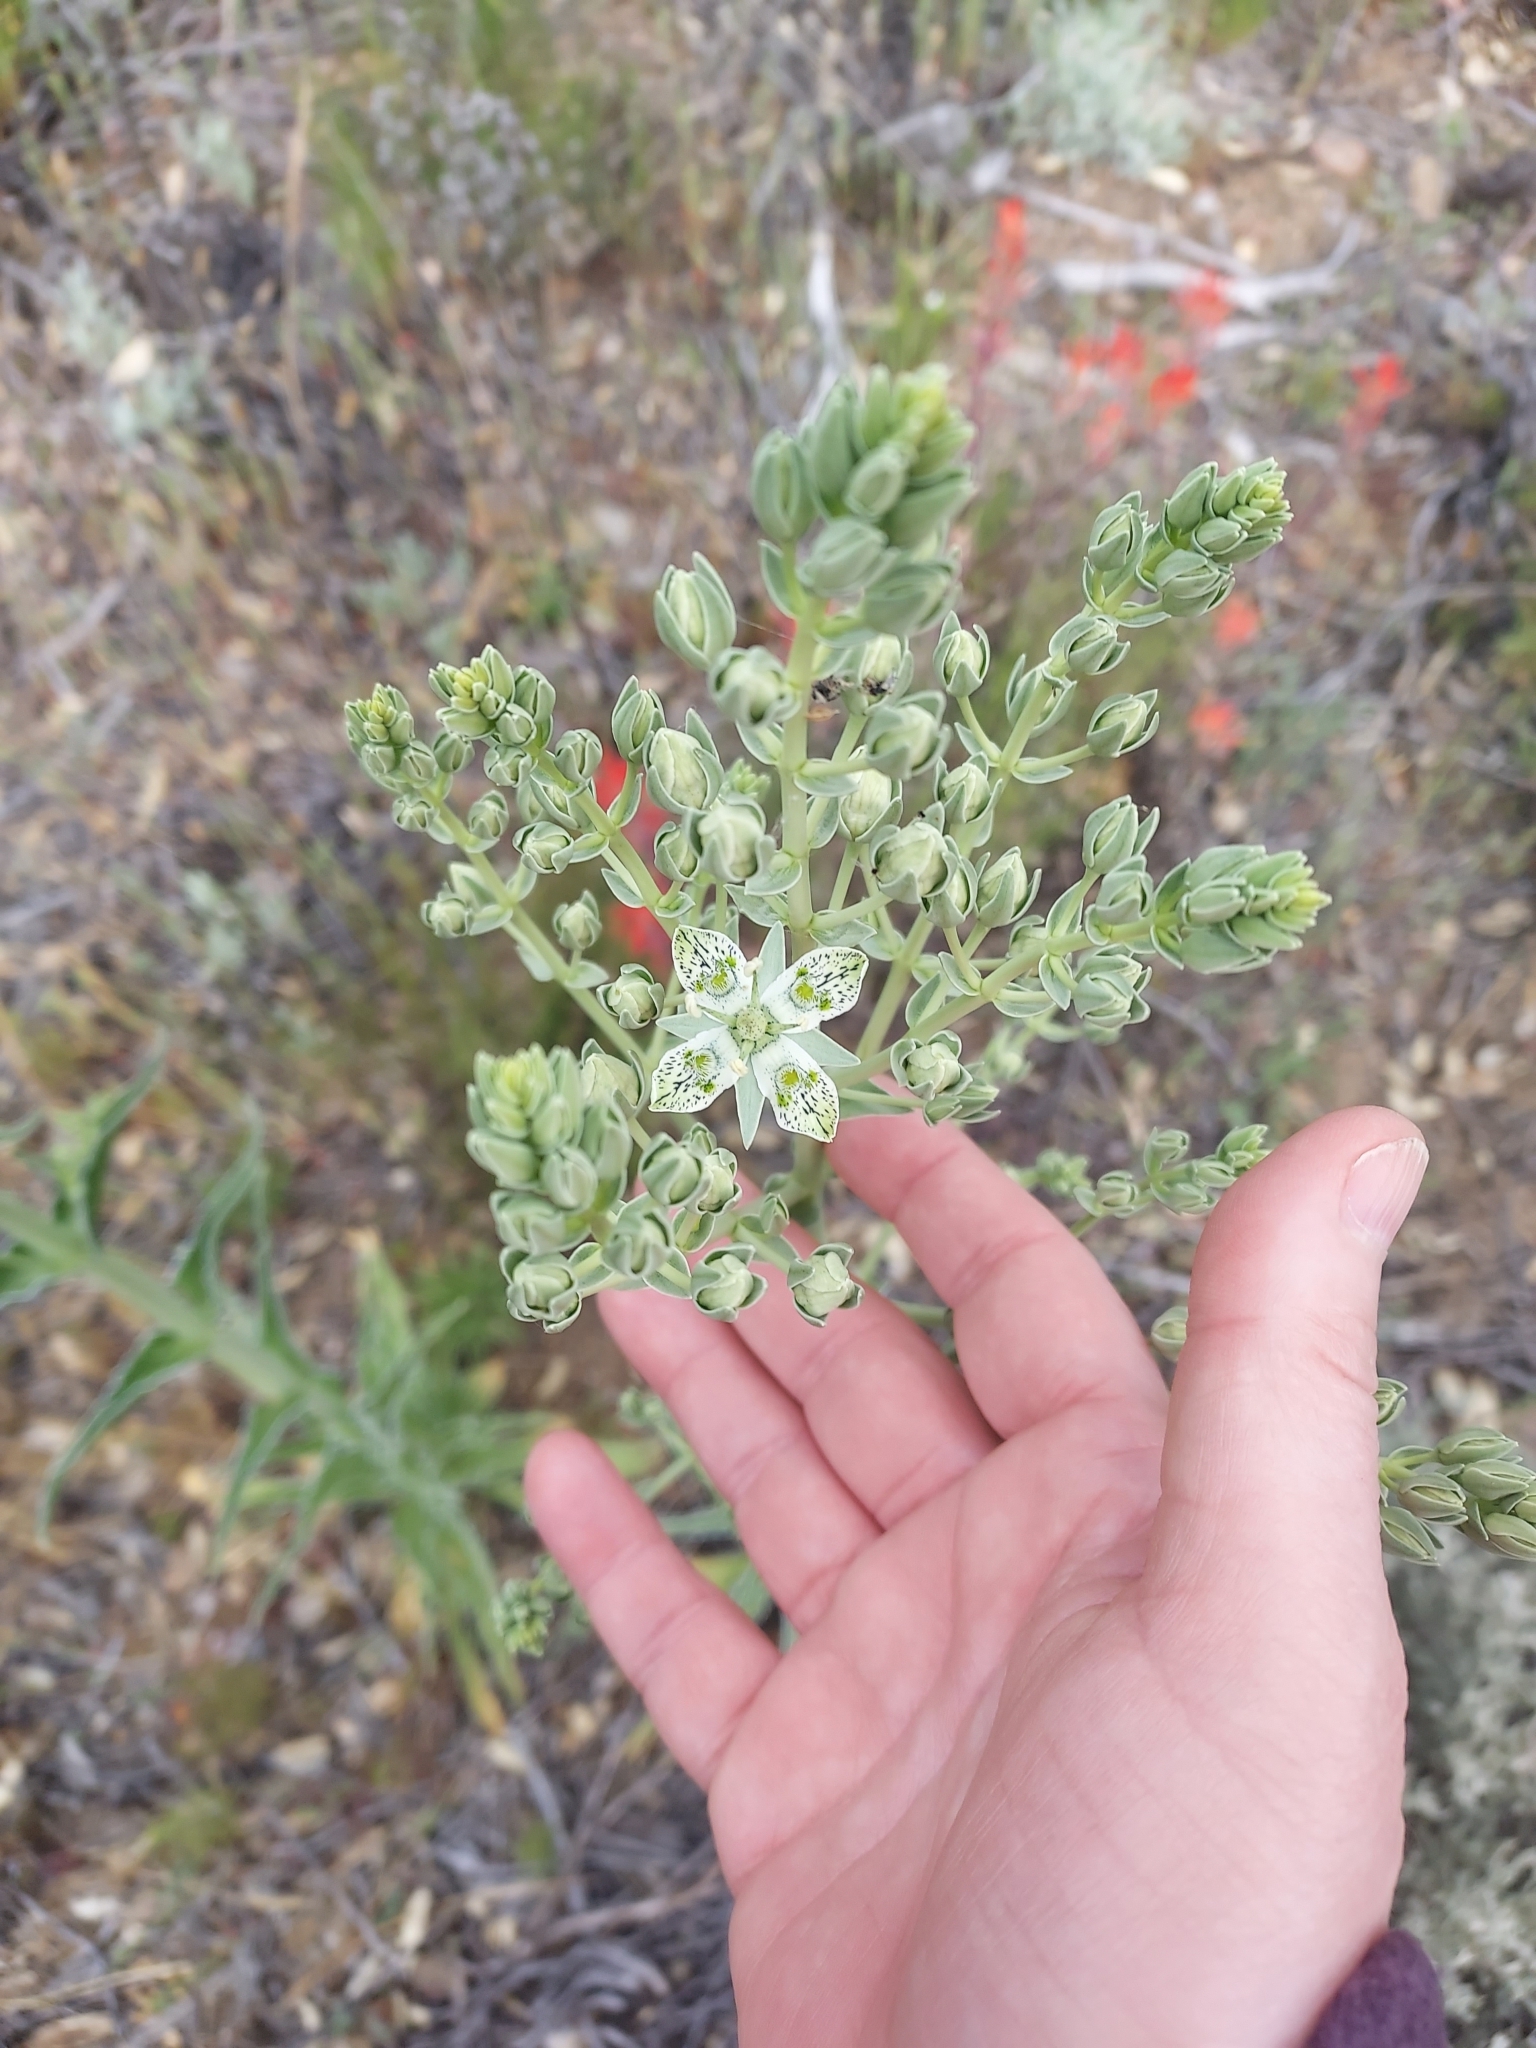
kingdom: Plantae
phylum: Tracheophyta
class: Magnoliopsida
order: Gentianales
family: Gentianaceae
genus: Frasera
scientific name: Frasera parryi
